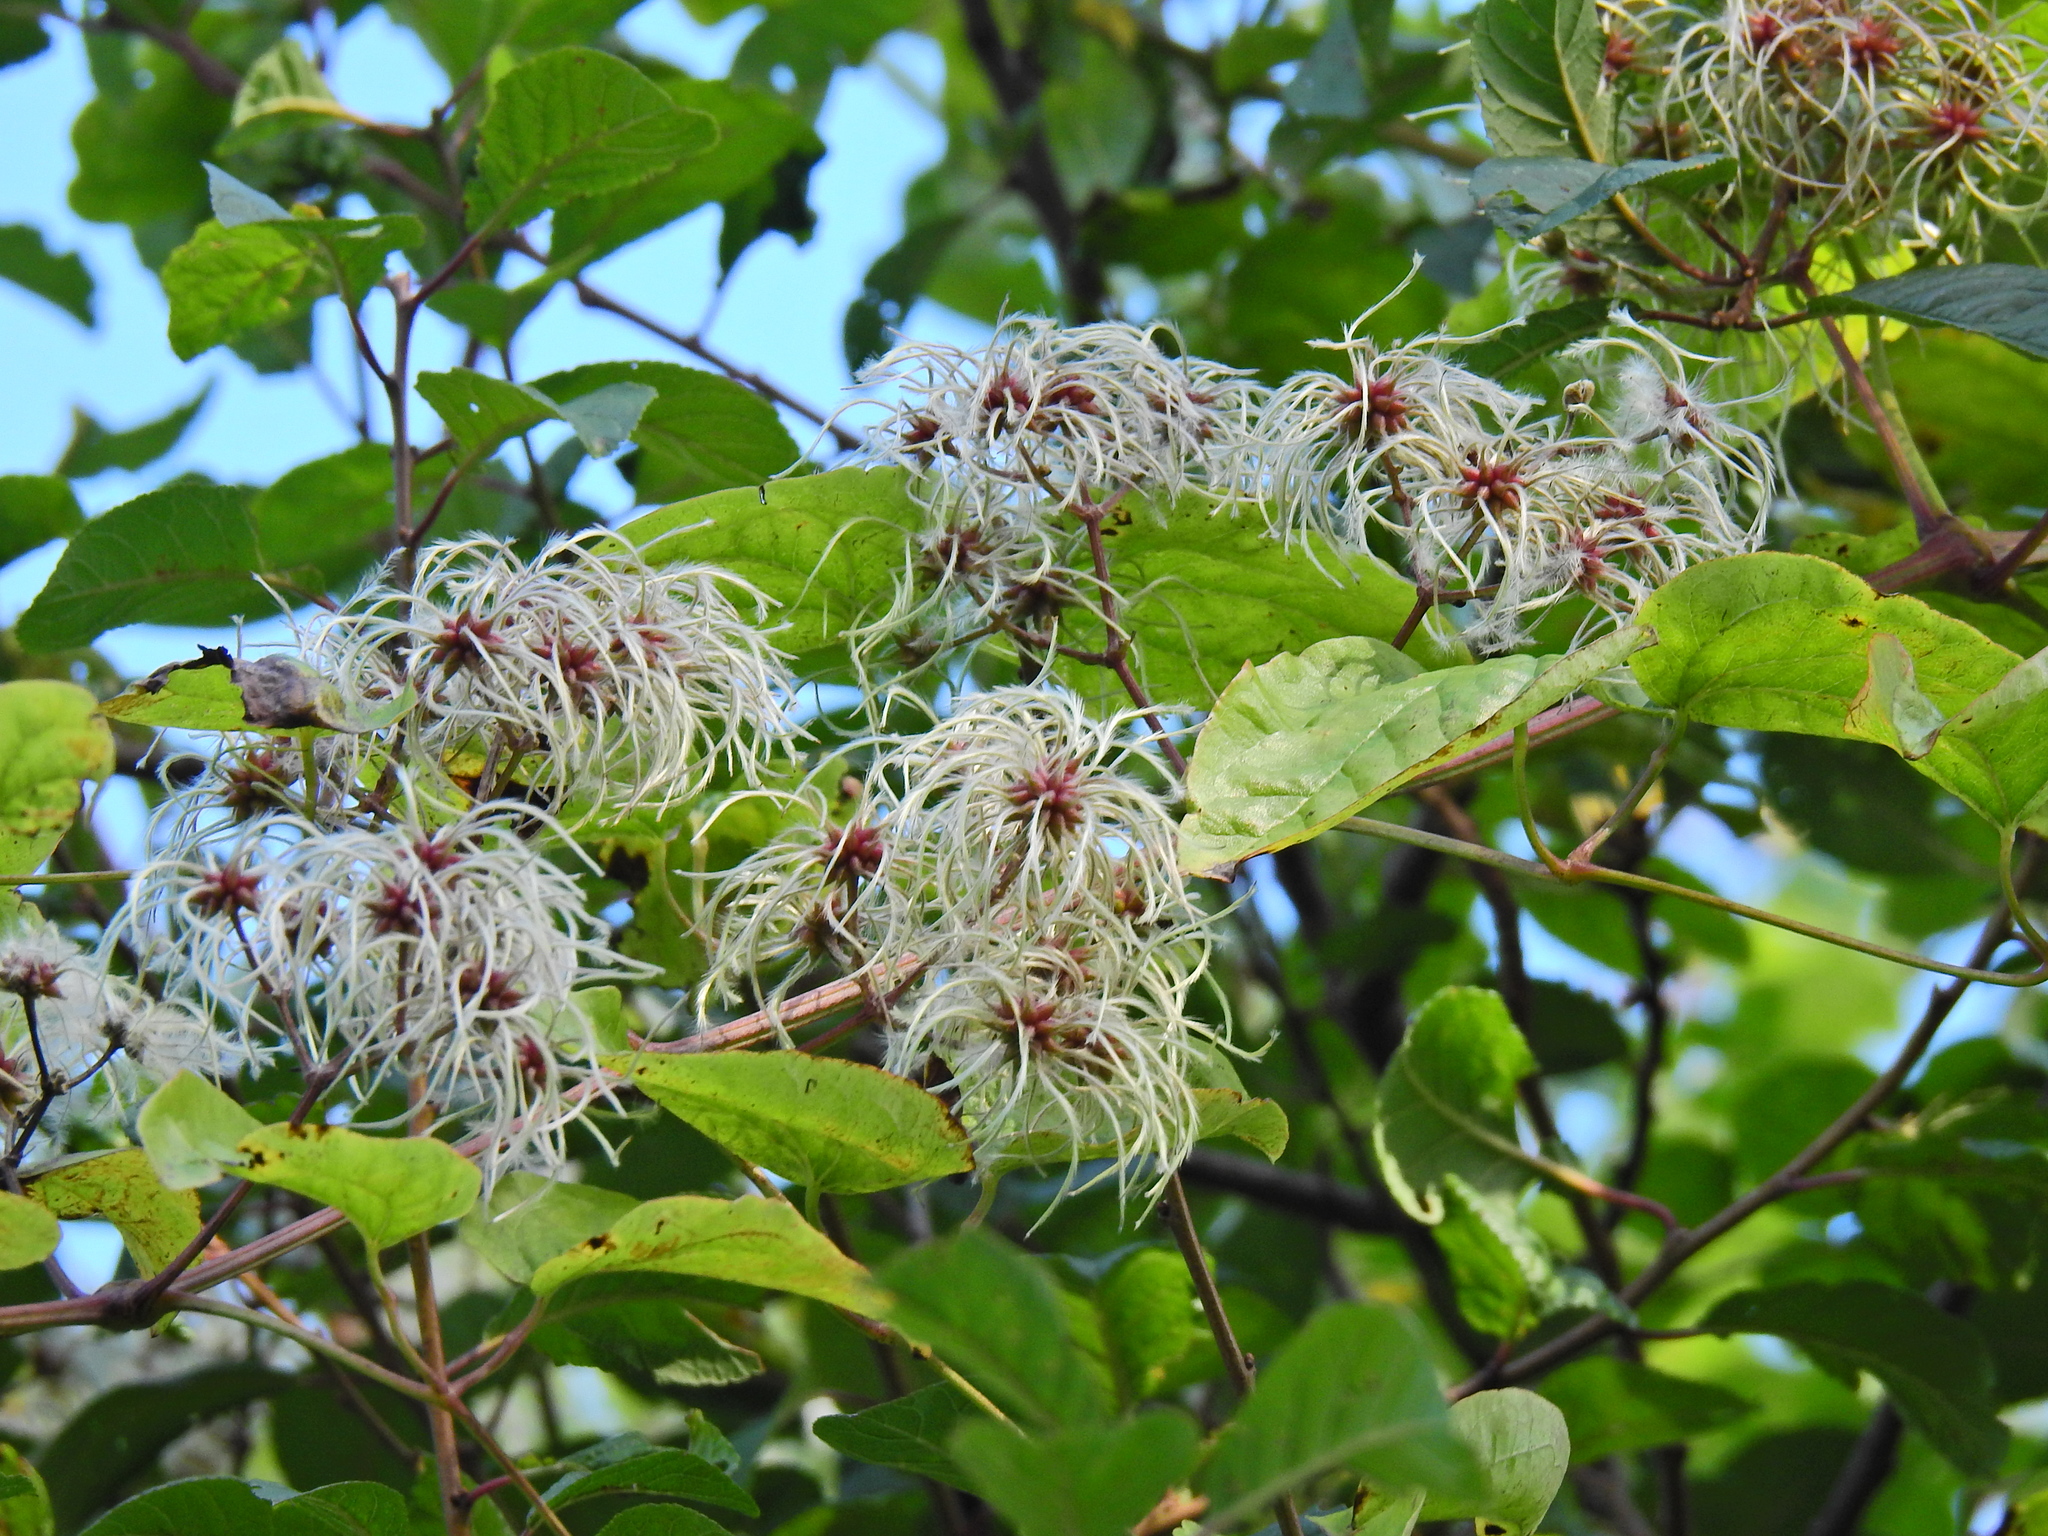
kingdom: Plantae
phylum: Tracheophyta
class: Magnoliopsida
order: Ranunculales
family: Ranunculaceae
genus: Clematis
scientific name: Clematis vitalba
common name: Evergreen clematis
